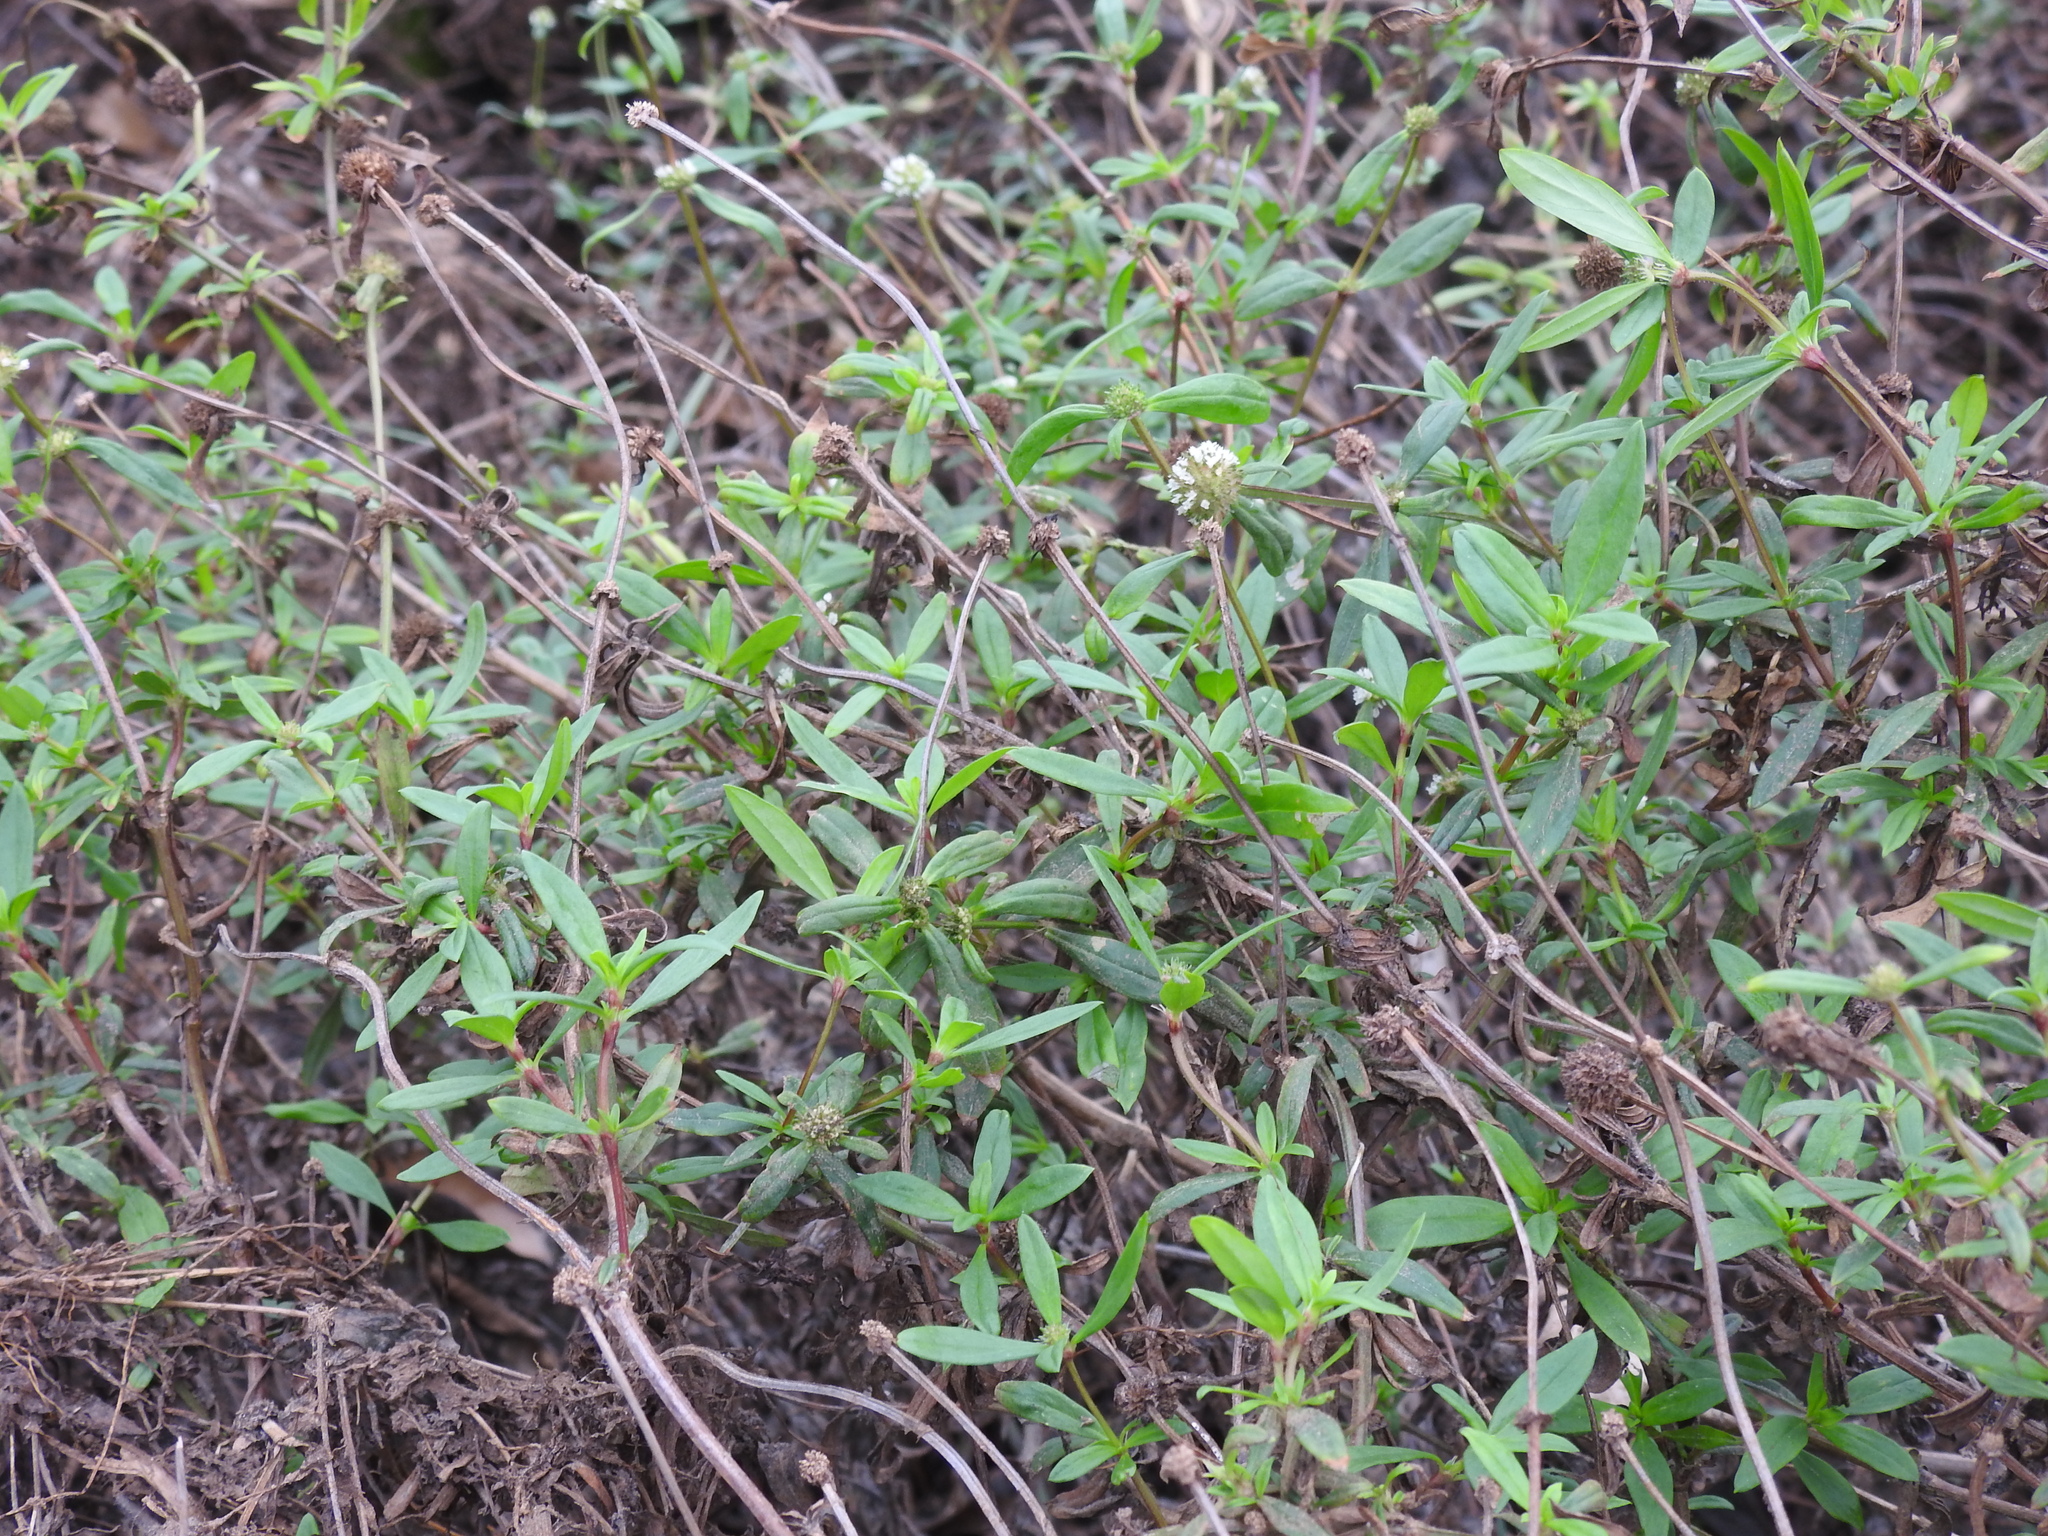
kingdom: Plantae
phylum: Tracheophyta
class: Magnoliopsida
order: Gentianales
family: Rubiaceae
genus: Spermacoce
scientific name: Spermacoce verticillata
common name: Shrubby false buttonweed
